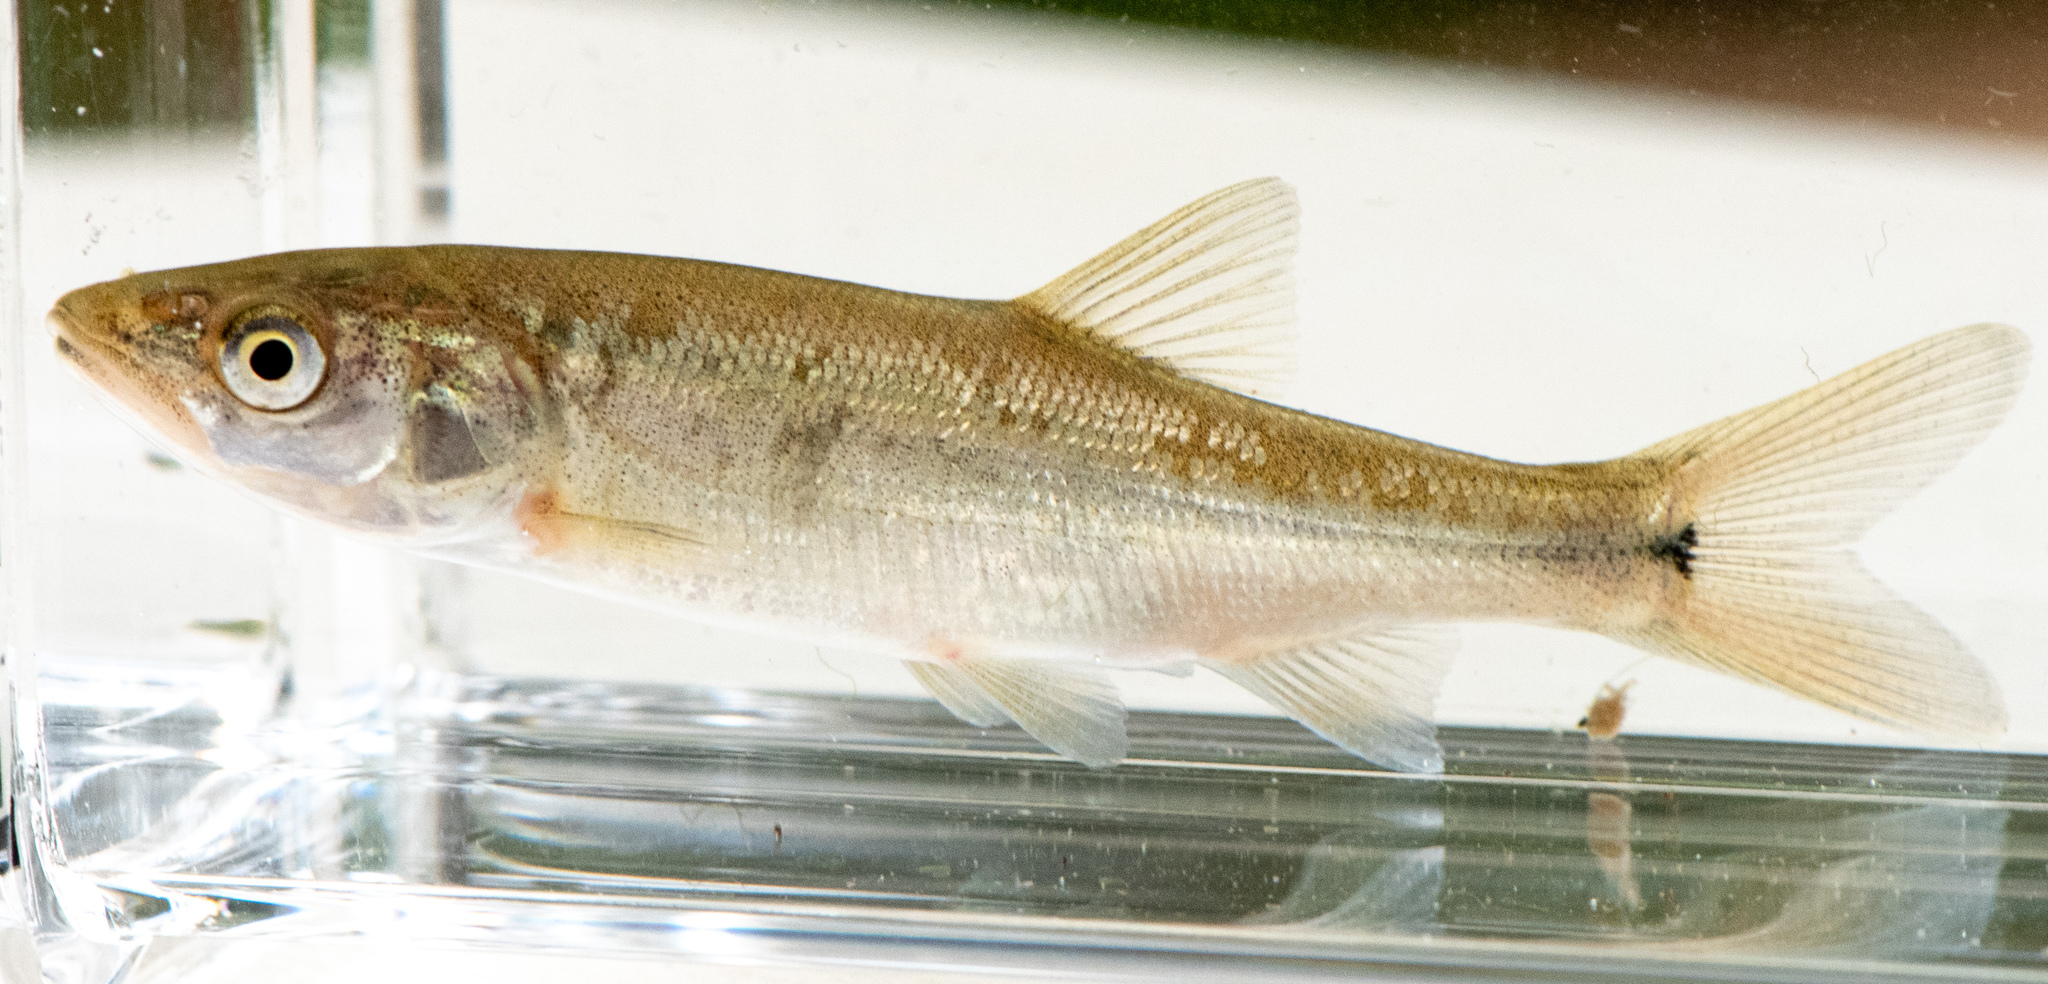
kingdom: Animalia
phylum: Chordata
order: Cypriniformes
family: Cyprinidae
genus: Mylopharodon
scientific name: Mylopharodon conocephalus
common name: Hardhead
